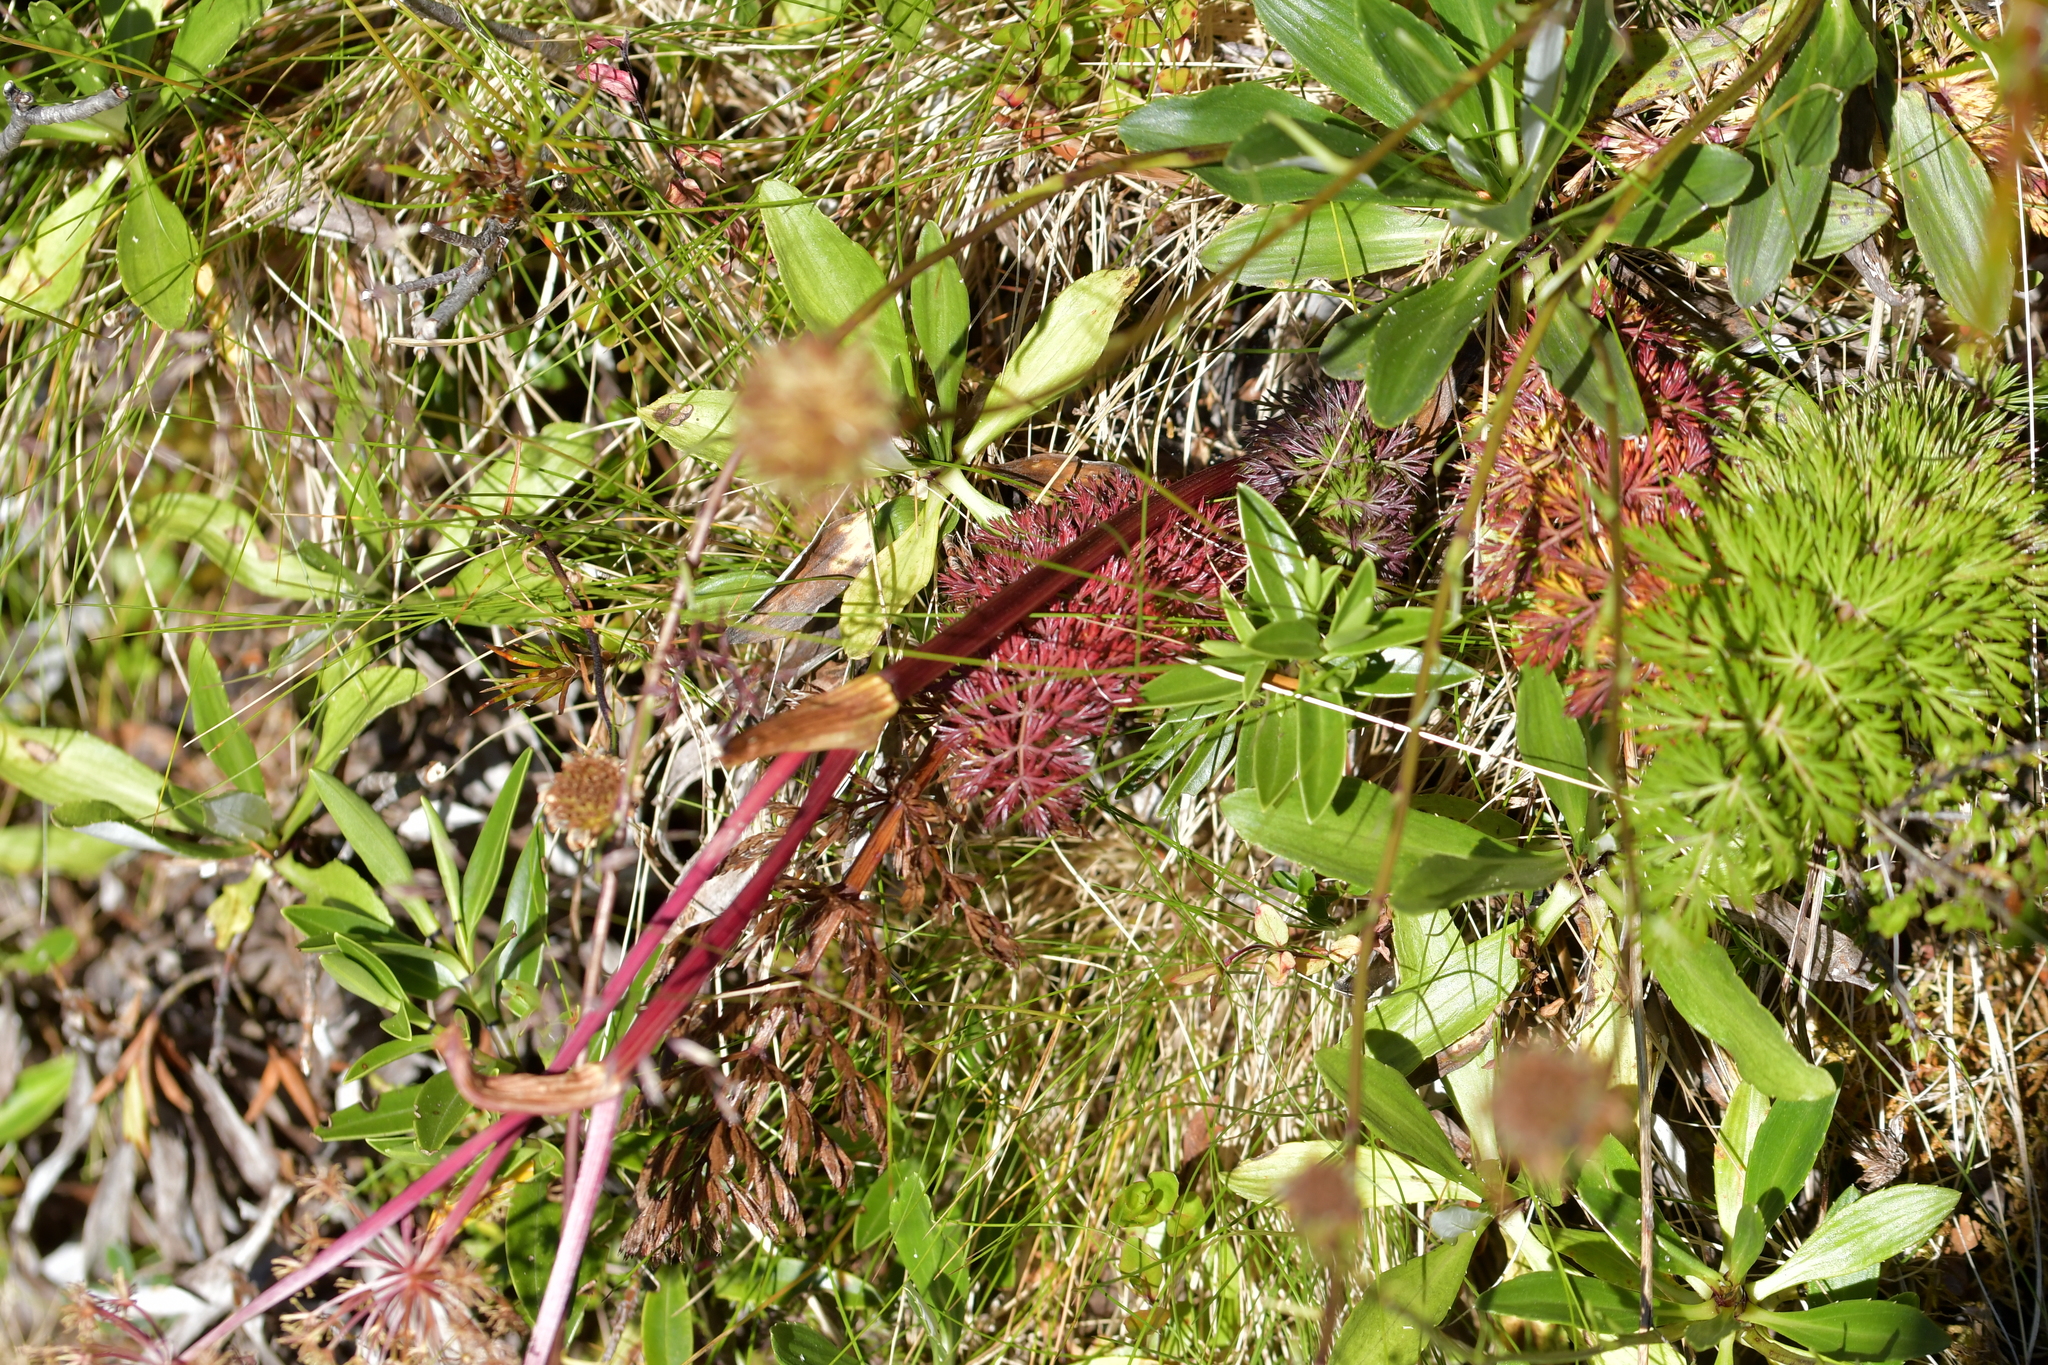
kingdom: Plantae
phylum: Tracheophyta
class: Magnoliopsida
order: Apiales
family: Apiaceae
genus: Anisotome
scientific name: Anisotome haastii
